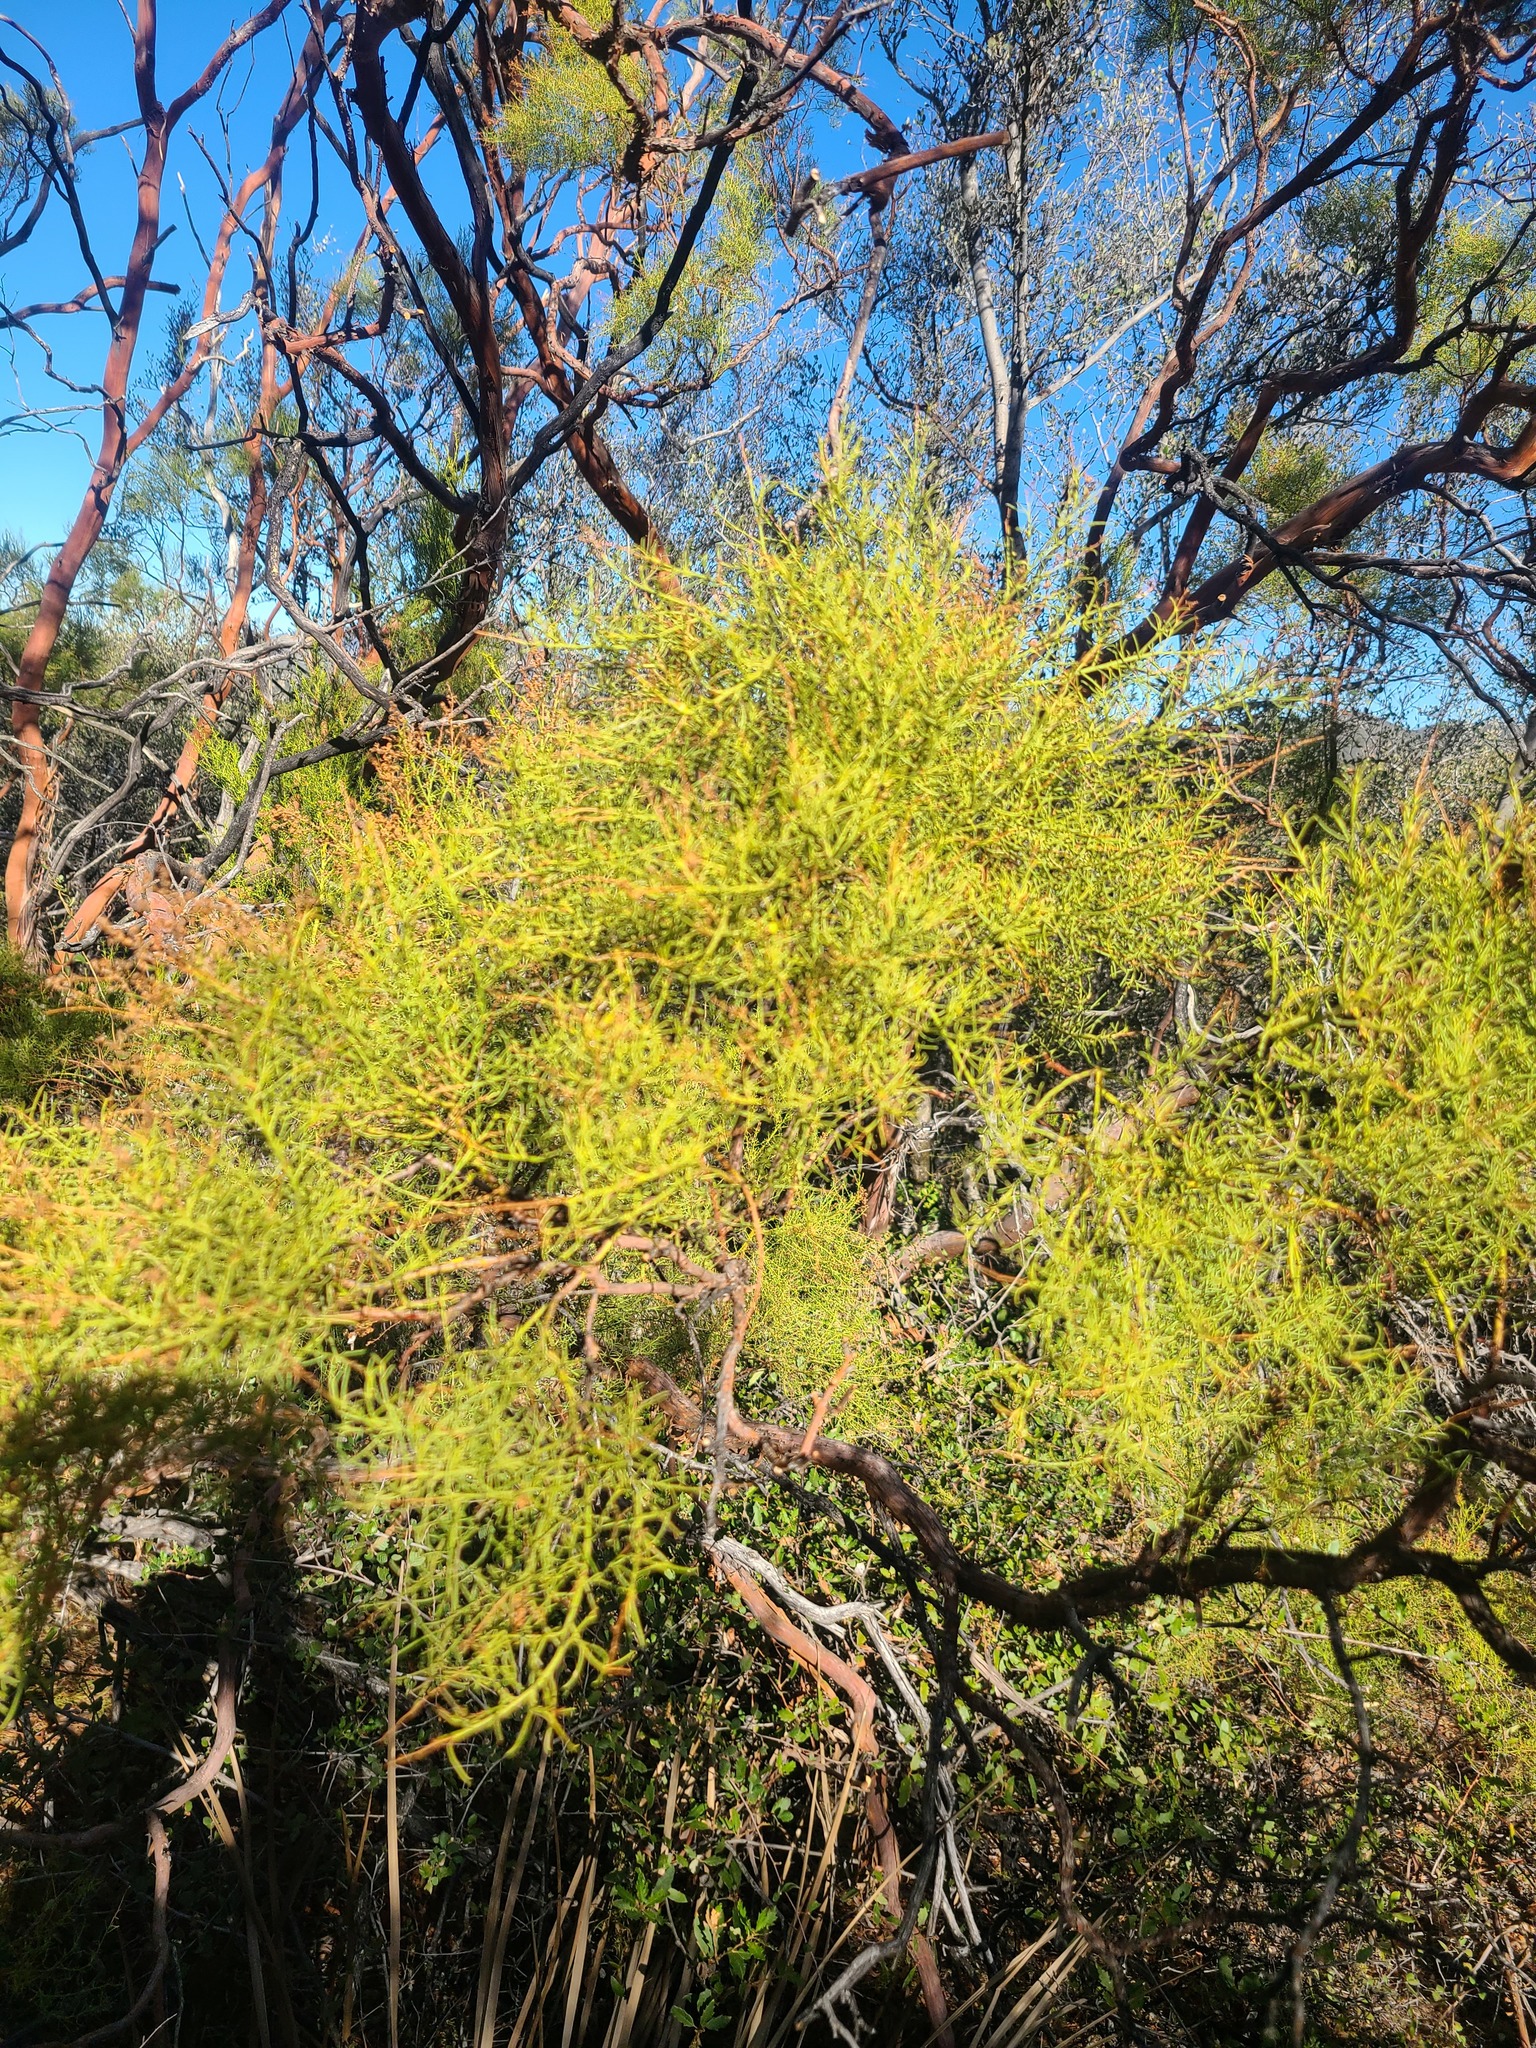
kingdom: Plantae
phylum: Tracheophyta
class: Magnoliopsida
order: Rosales
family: Rosaceae
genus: Adenostoma
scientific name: Adenostoma sparsifolium
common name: Red shank
